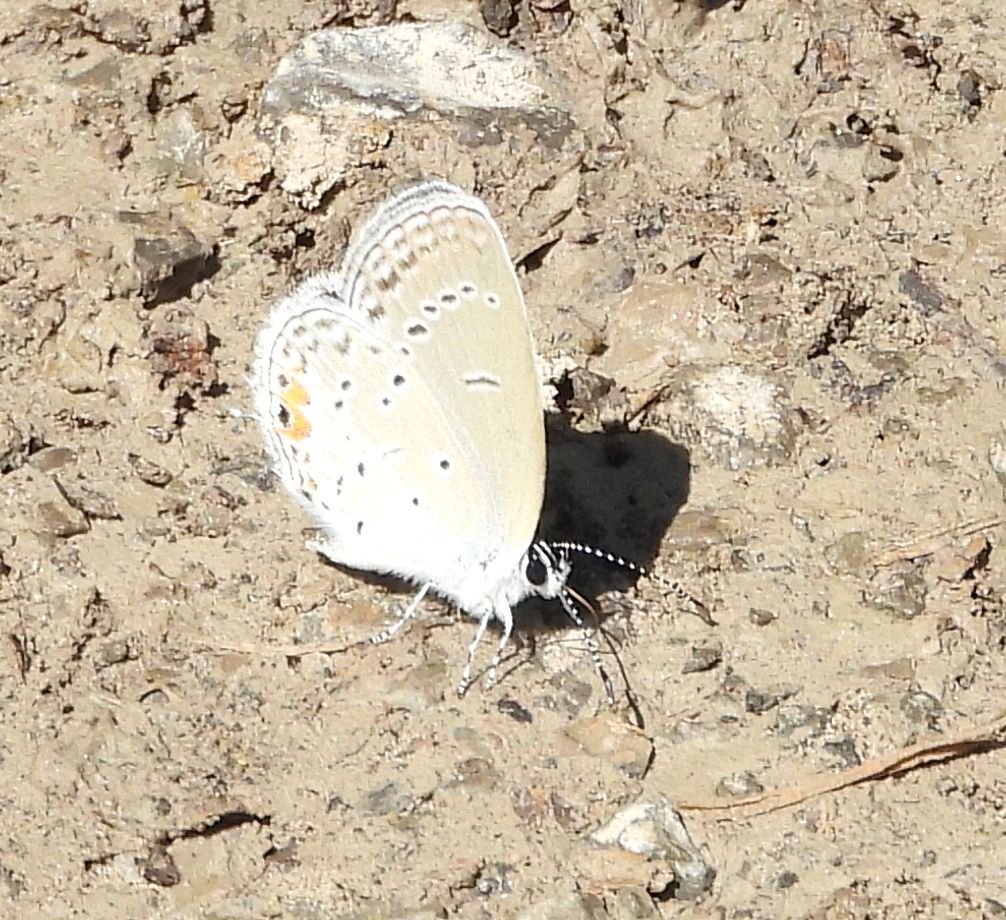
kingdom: Animalia
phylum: Arthropoda
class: Insecta
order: Lepidoptera
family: Lycaenidae
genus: Elkalyce
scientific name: Elkalyce comyntas
